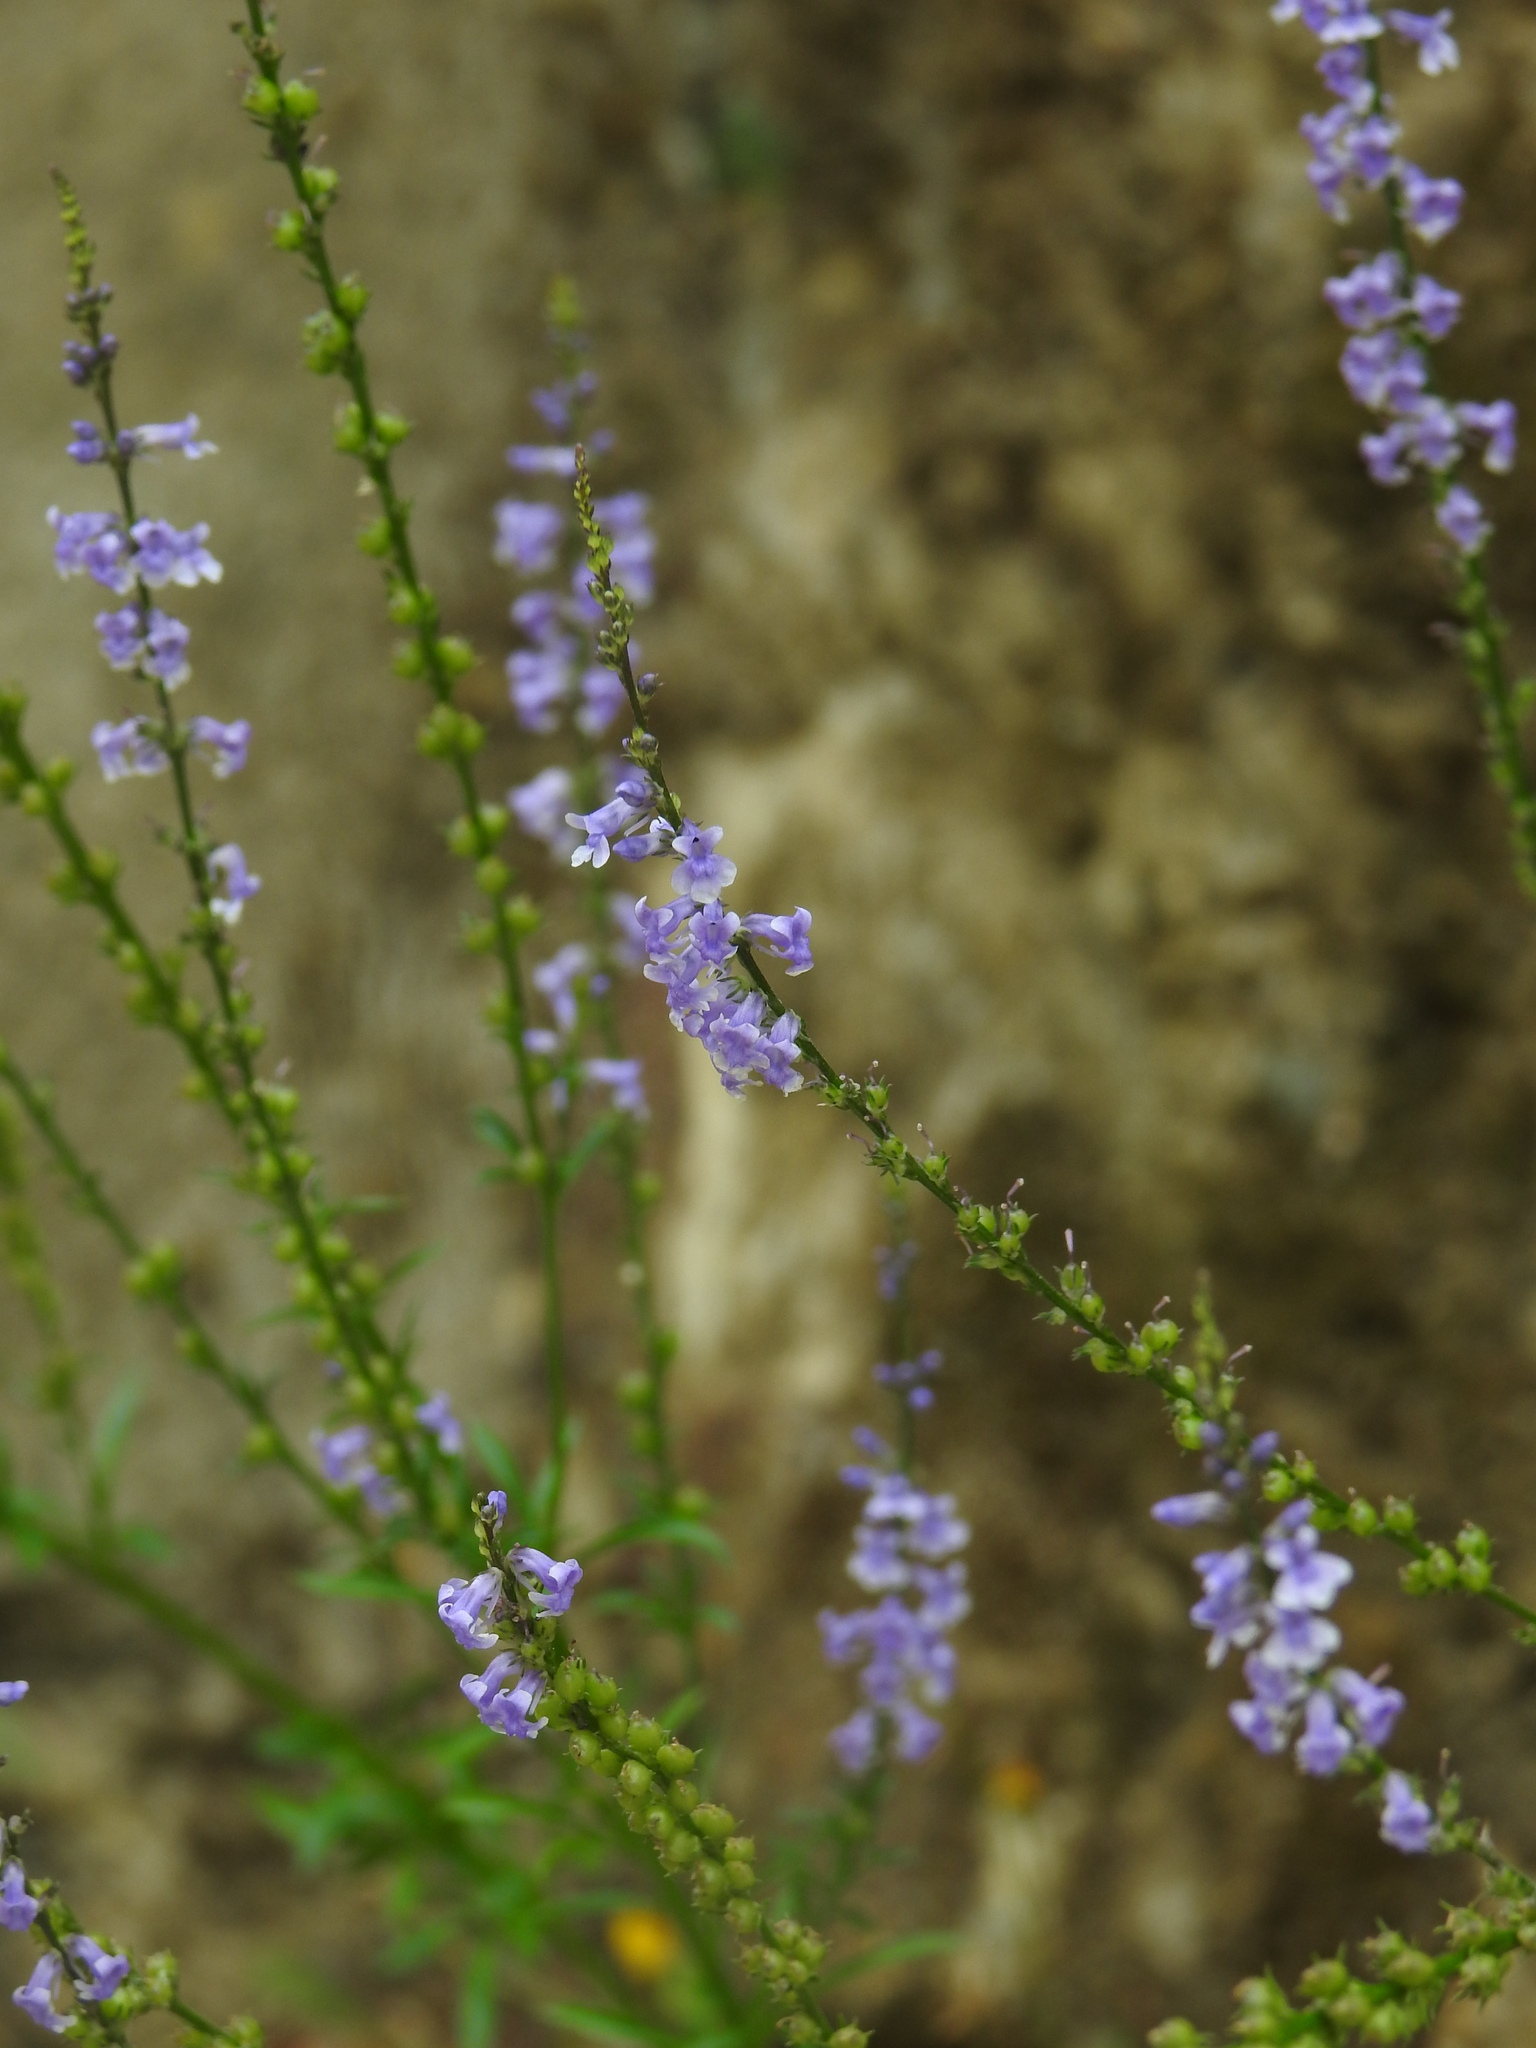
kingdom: Plantae
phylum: Tracheophyta
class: Magnoliopsida
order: Lamiales
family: Plantaginaceae
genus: Anarrhinum
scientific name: Anarrhinum bellidifolium
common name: Daisy-leaved toadflax
